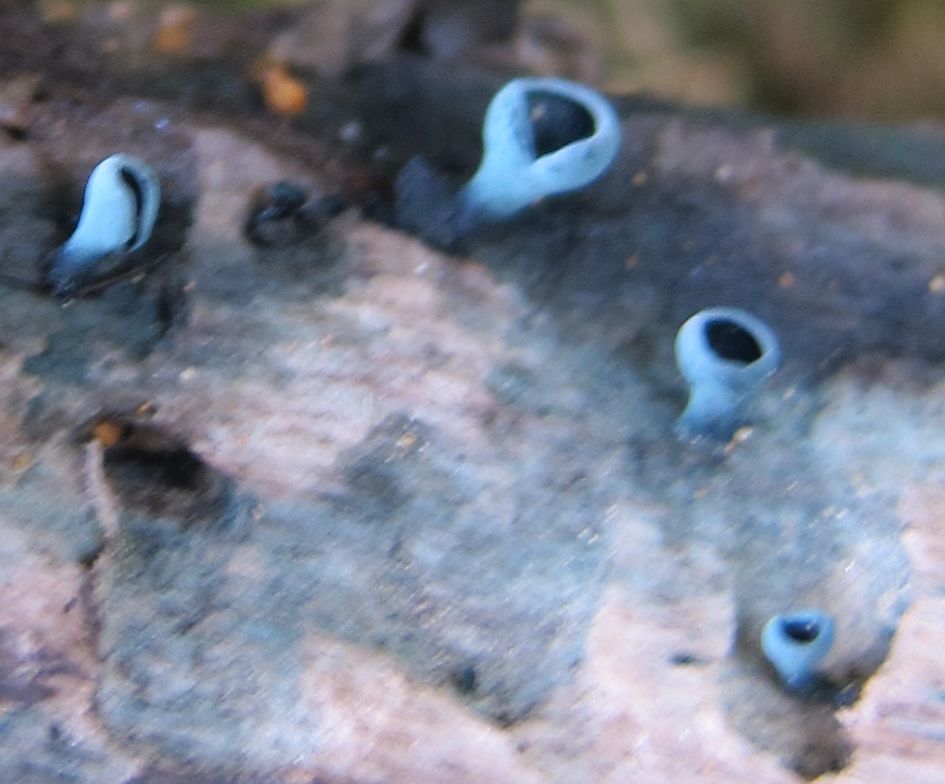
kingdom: Fungi
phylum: Ascomycota
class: Leotiomycetes
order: Helotiales
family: Chlorociboriaceae
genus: Chlorociboria
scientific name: Chlorociboria
